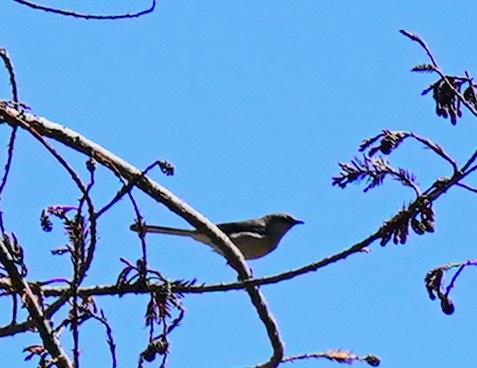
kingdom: Animalia
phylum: Chordata
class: Aves
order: Passeriformes
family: Mimidae
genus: Mimus
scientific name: Mimus polyglottos
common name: Northern mockingbird
